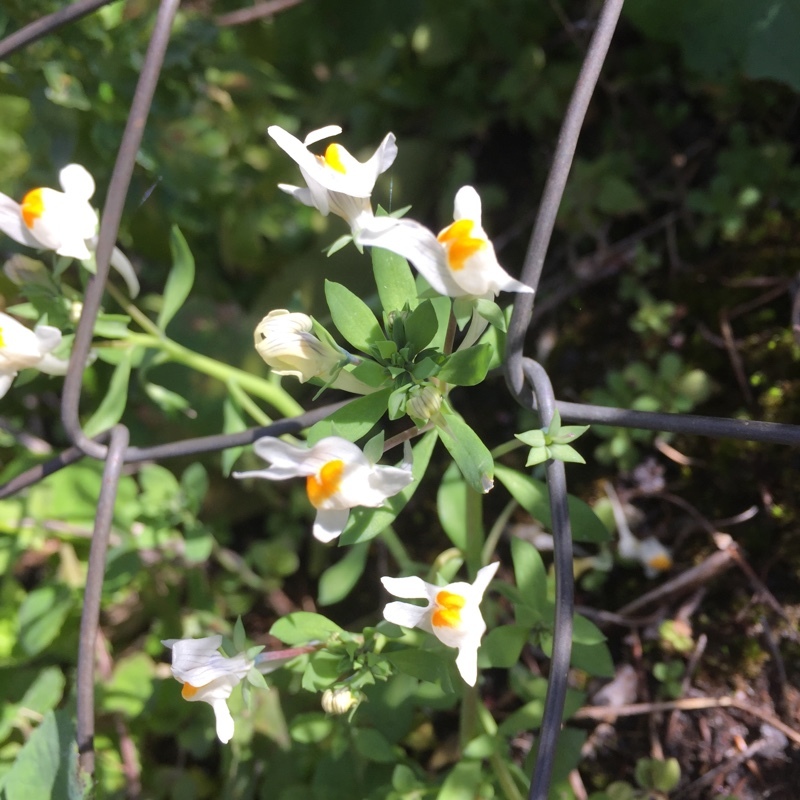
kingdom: Plantae
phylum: Tracheophyta
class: Magnoliopsida
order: Lamiales
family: Plantaginaceae
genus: Linaria
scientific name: Linaria reflexa
